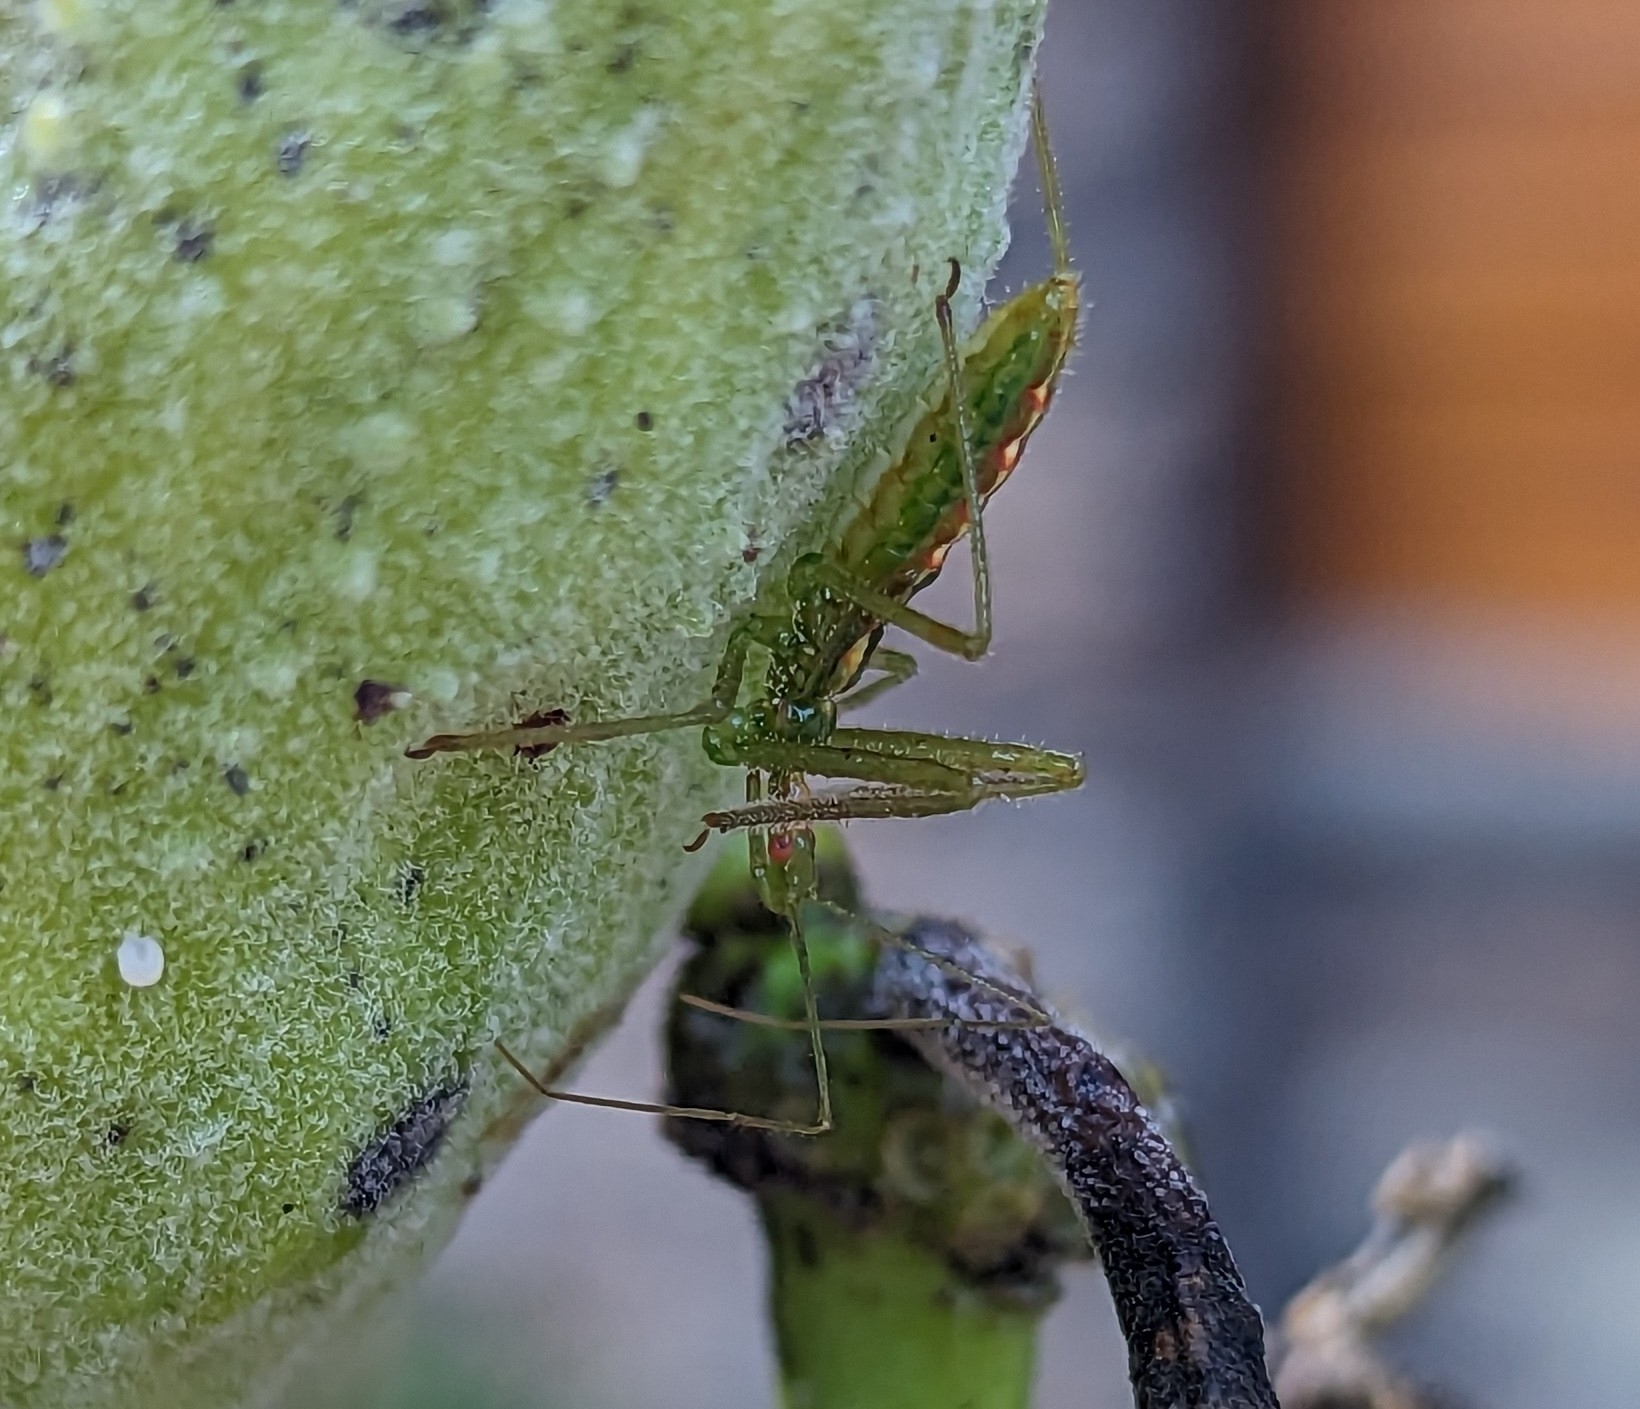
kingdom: Animalia
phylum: Arthropoda
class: Insecta
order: Hemiptera
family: Reduviidae
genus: Zelus
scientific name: Zelus luridus
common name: Pale green assassin bug
